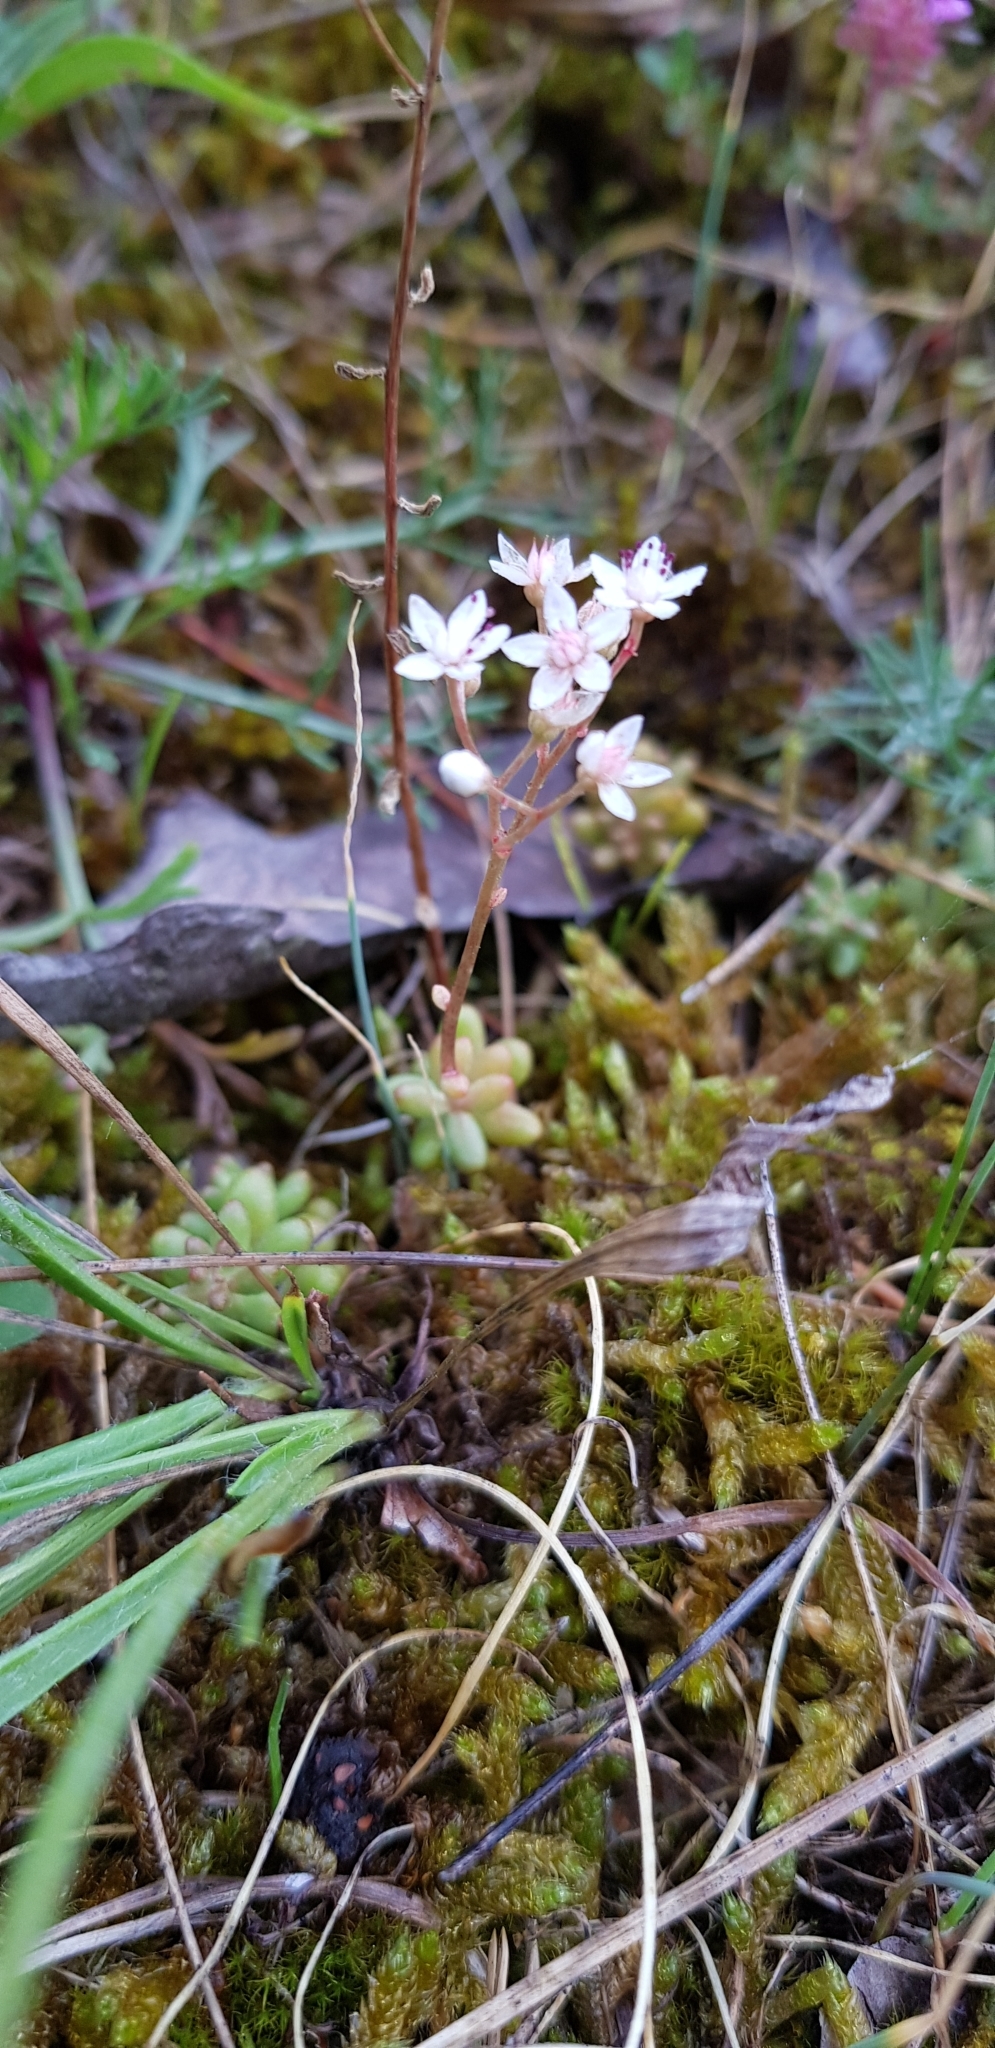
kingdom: Plantae
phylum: Tracheophyta
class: Magnoliopsida
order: Saxifragales
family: Crassulaceae
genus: Sedum
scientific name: Sedum album
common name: White stonecrop
